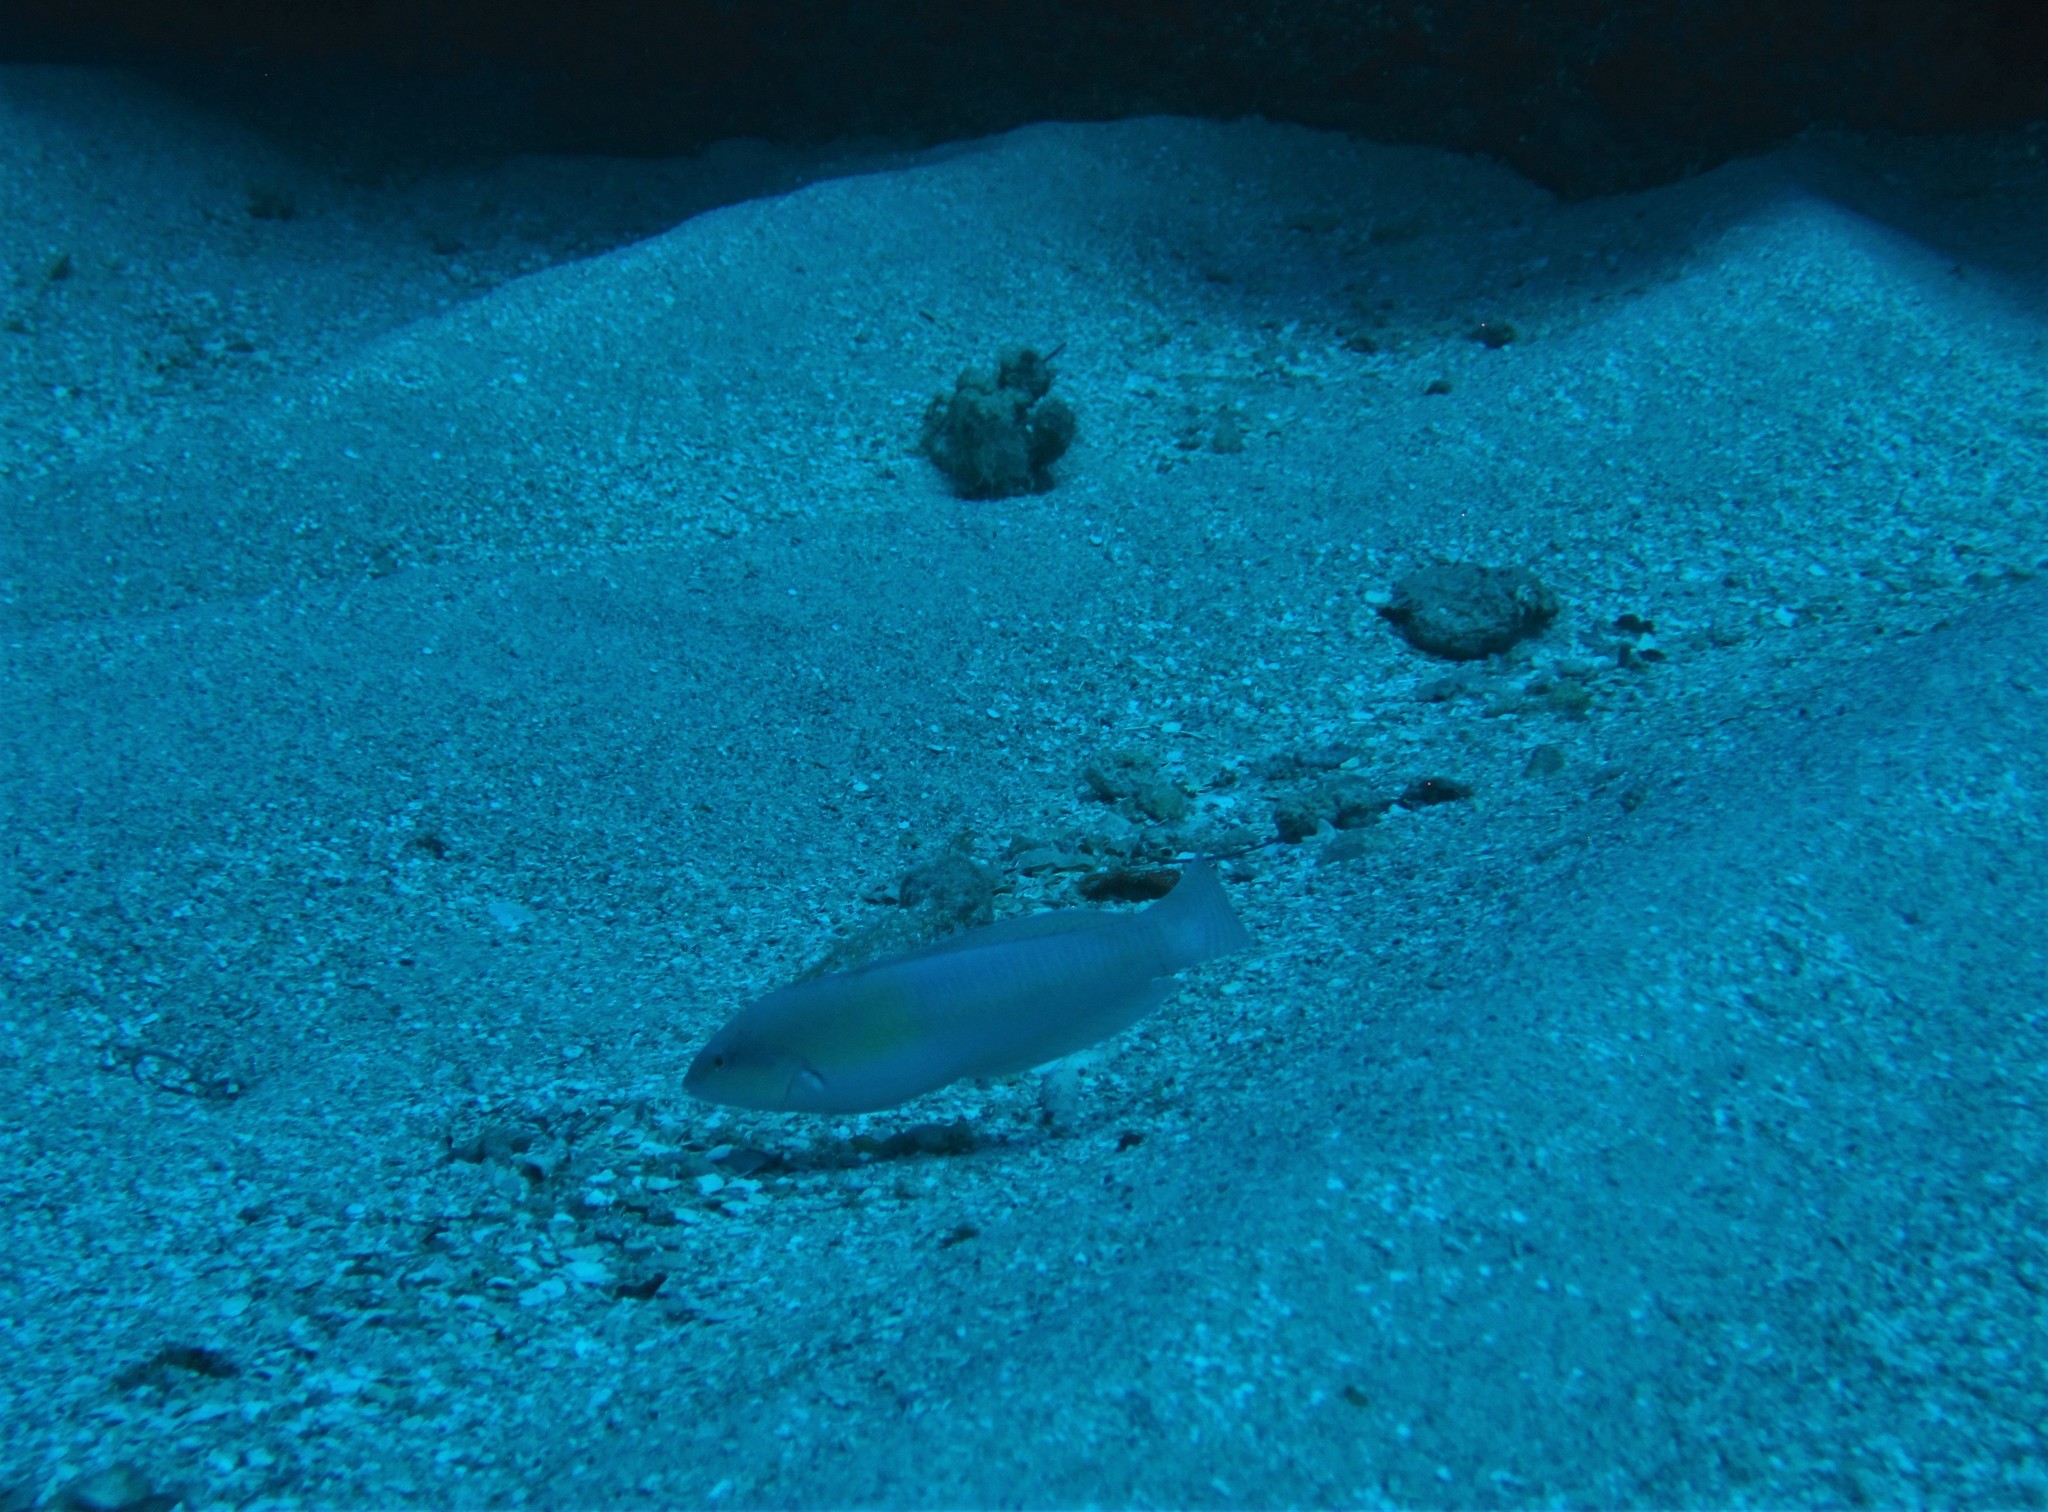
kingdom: Animalia
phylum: Chordata
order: Perciformes
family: Labridae
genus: Halichoeres
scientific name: Halichoeres garnoti
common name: Yellowhead wrasse
